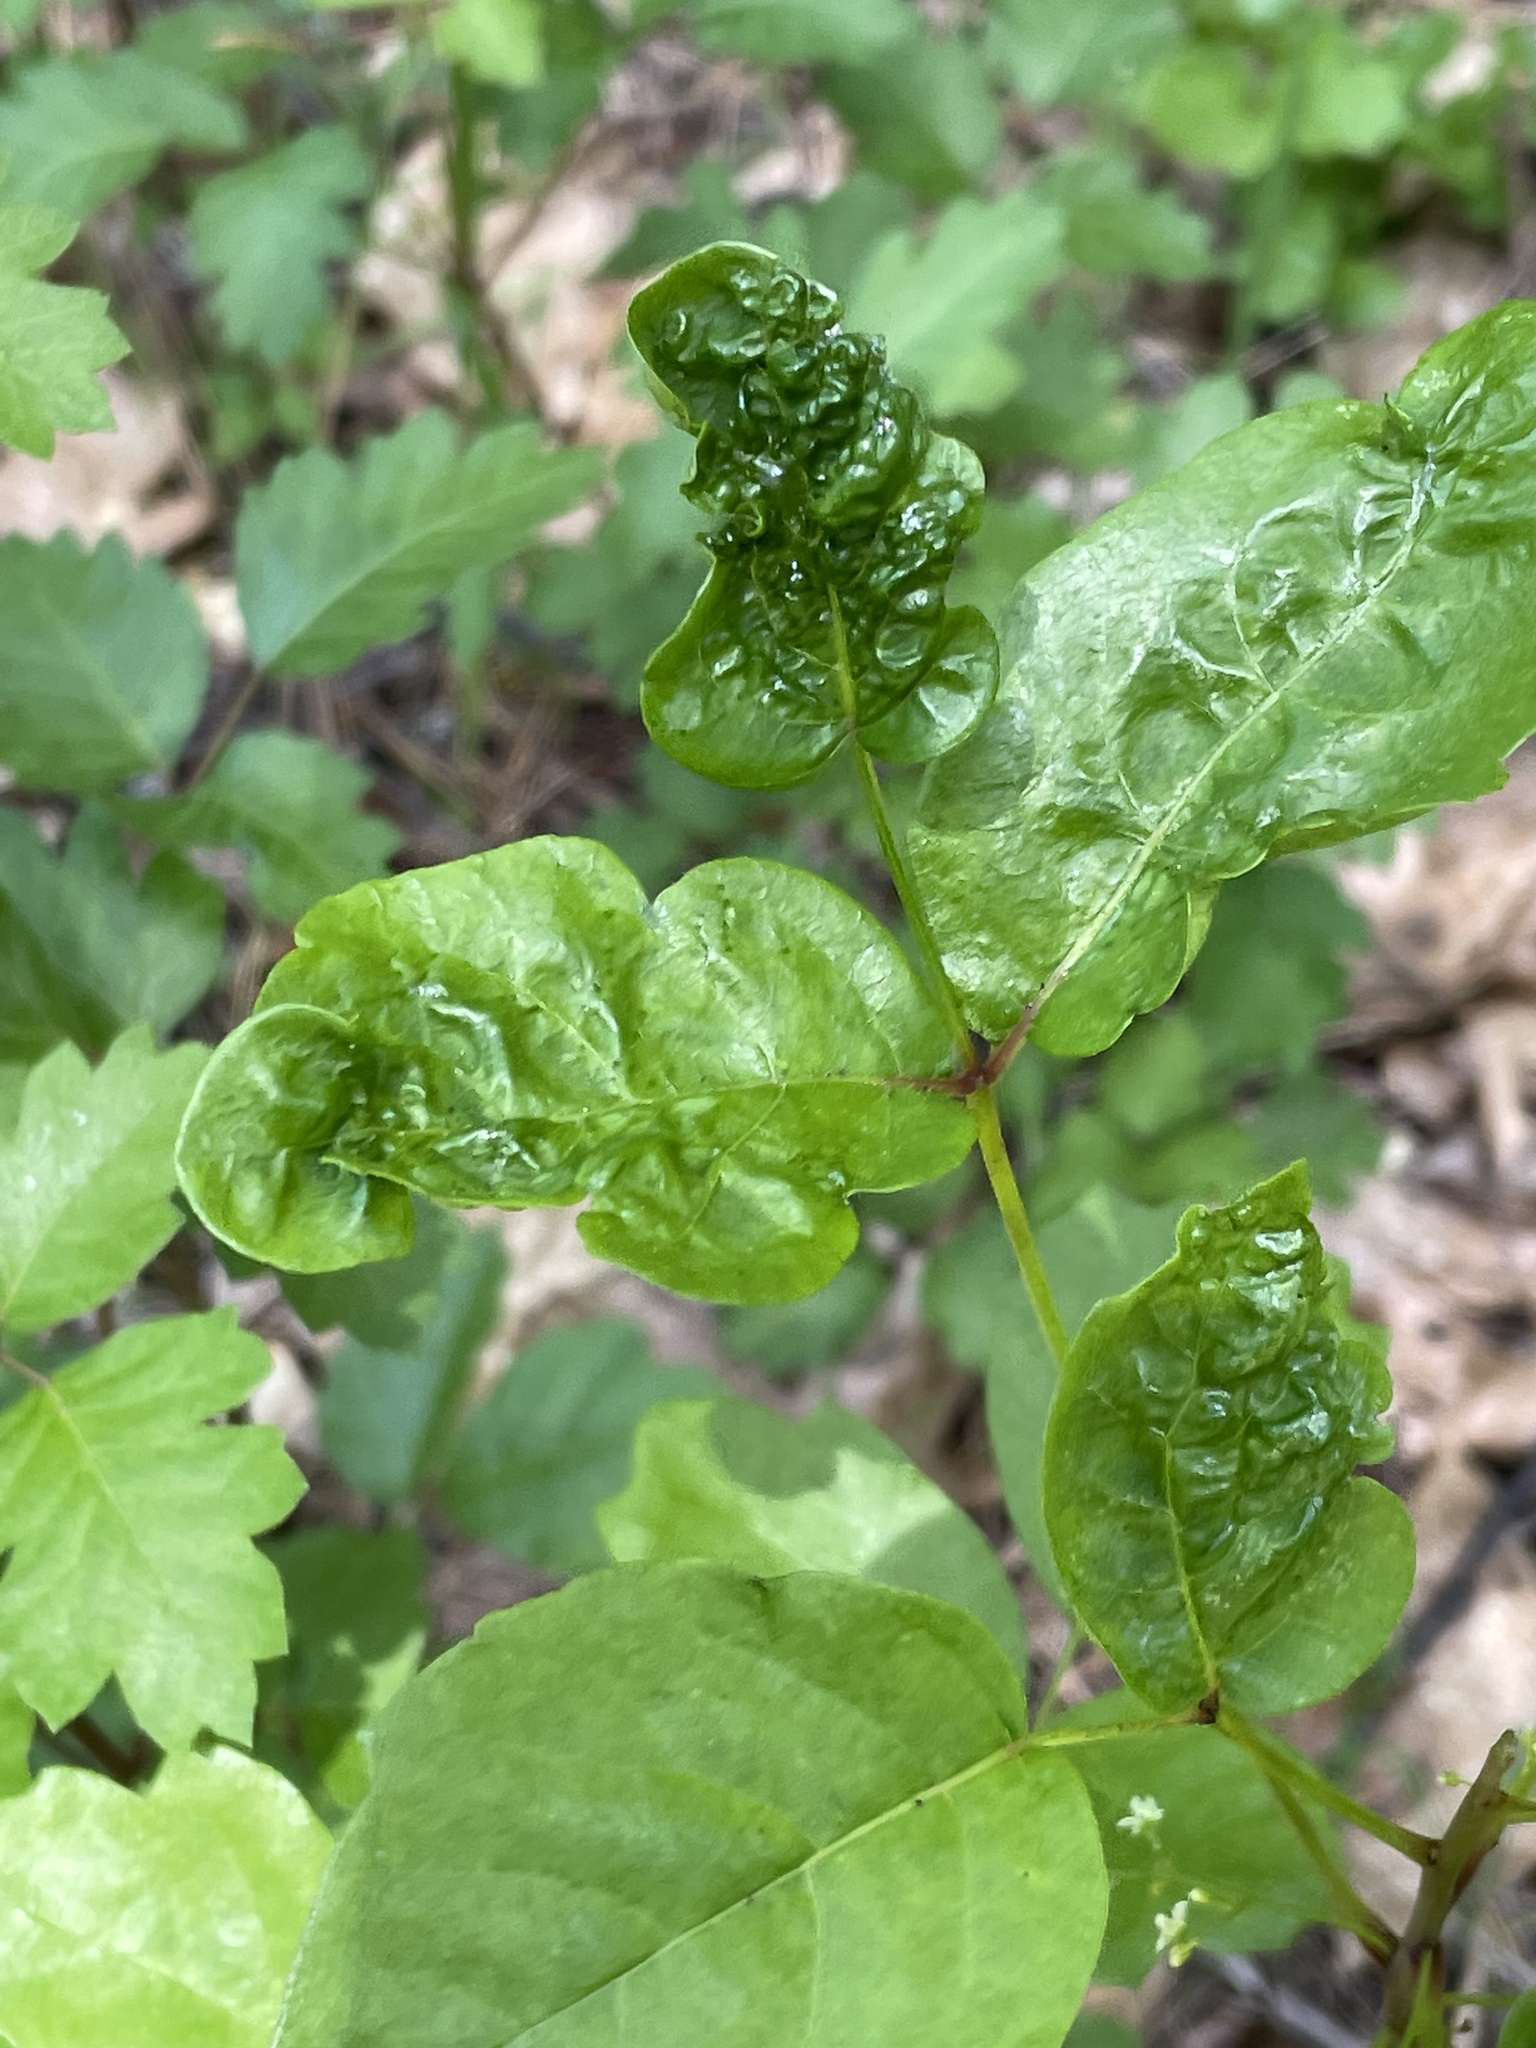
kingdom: Plantae
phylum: Tracheophyta
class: Magnoliopsida
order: Sapindales
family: Anacardiaceae
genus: Toxicodendron
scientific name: Toxicodendron diversilobum
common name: Pacific poison-oak
